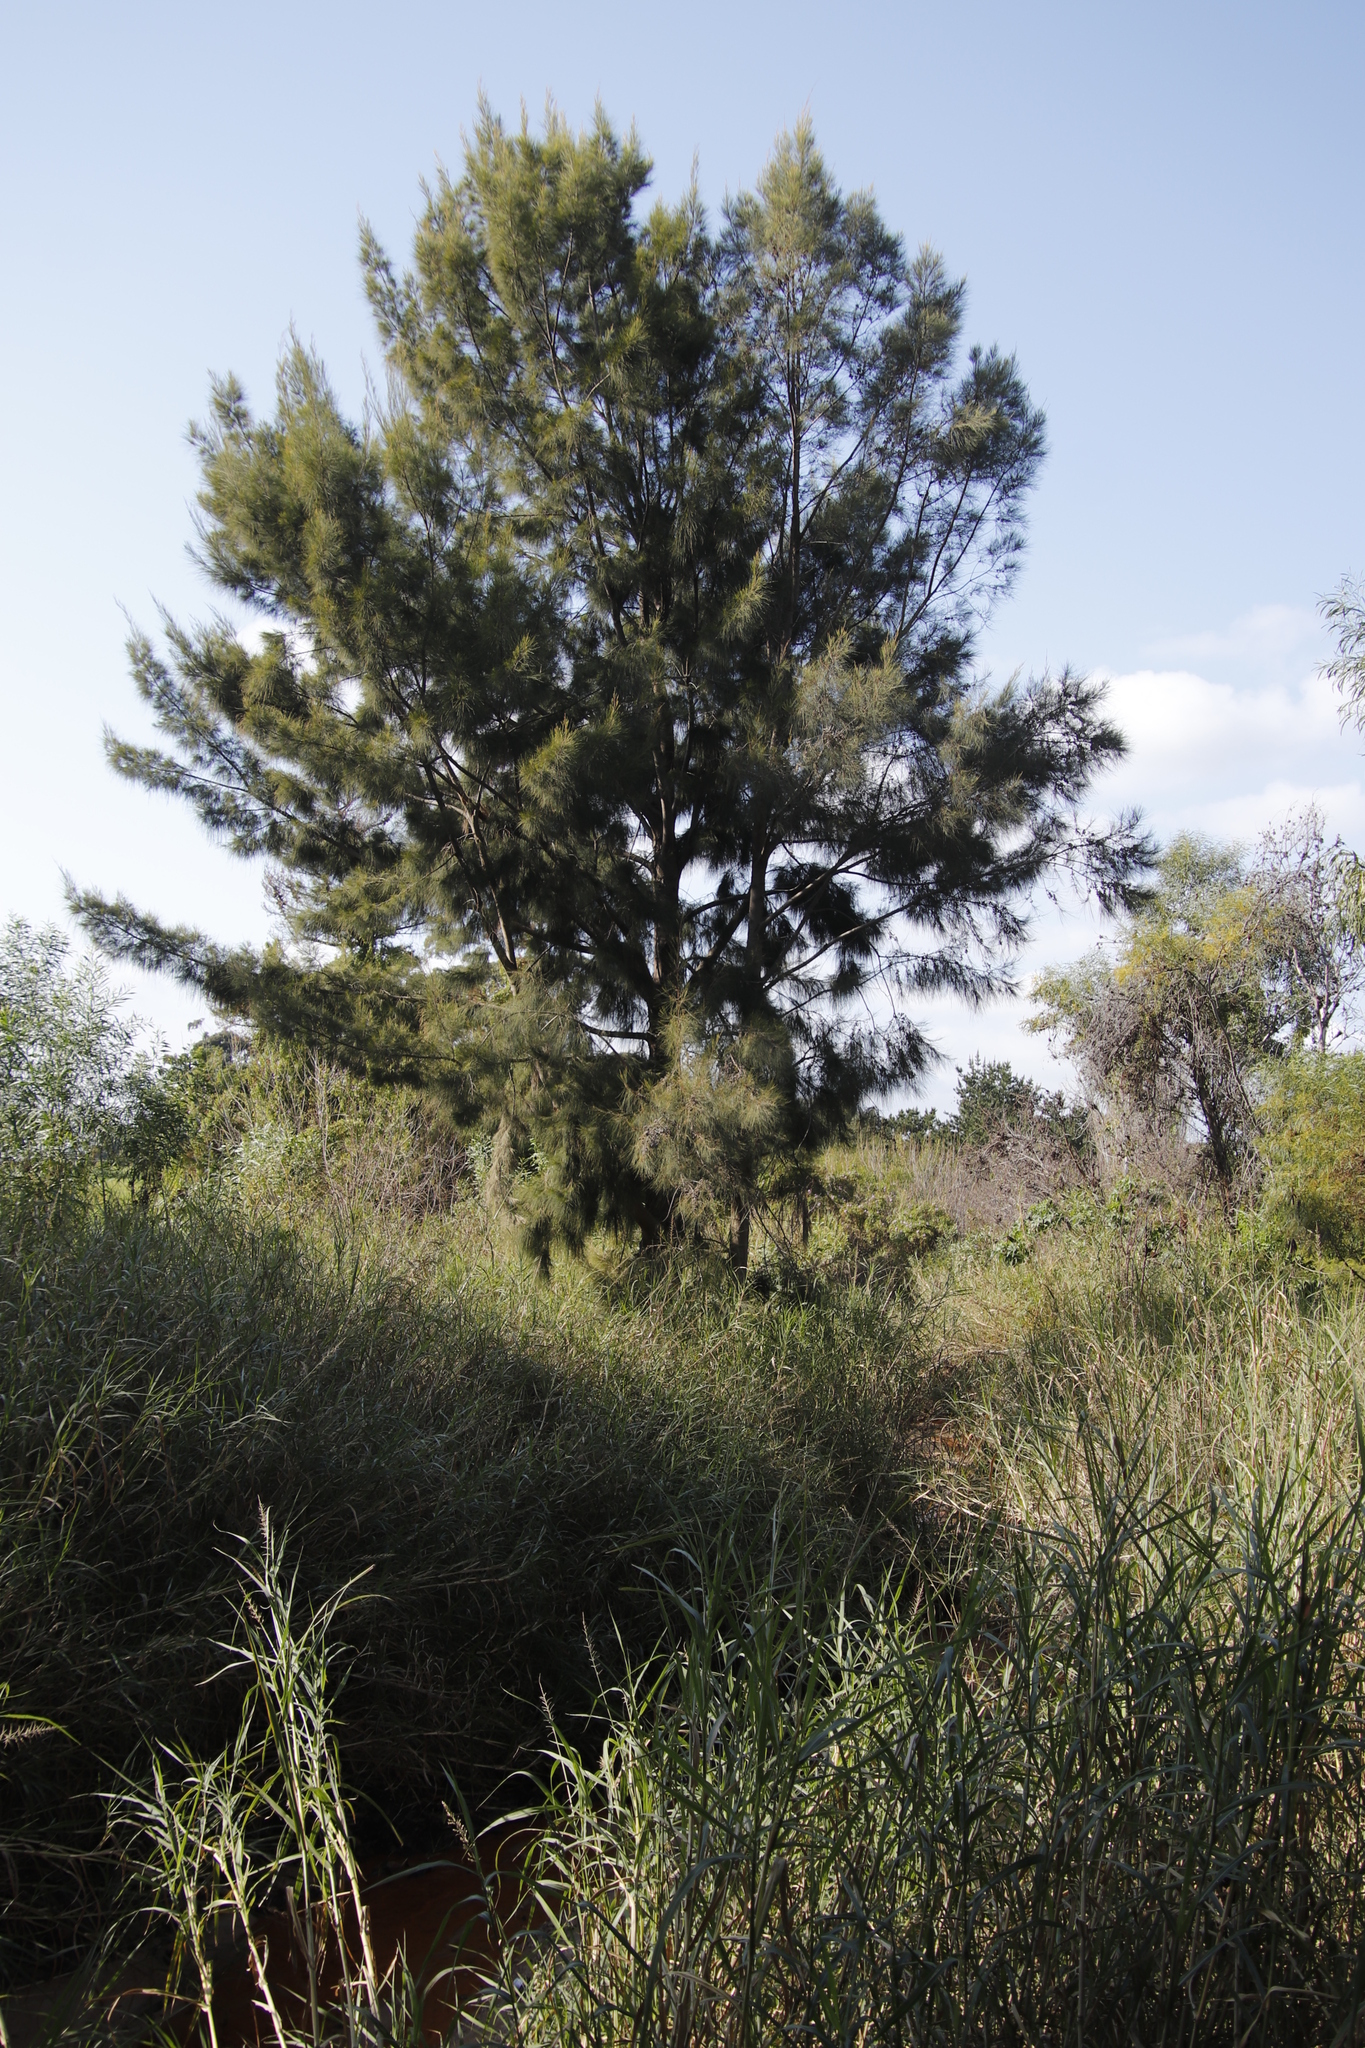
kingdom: Plantae
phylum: Tracheophyta
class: Magnoliopsida
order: Fagales
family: Casuarinaceae
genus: Casuarina
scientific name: Casuarina cunninghamiana
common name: River sheoak
